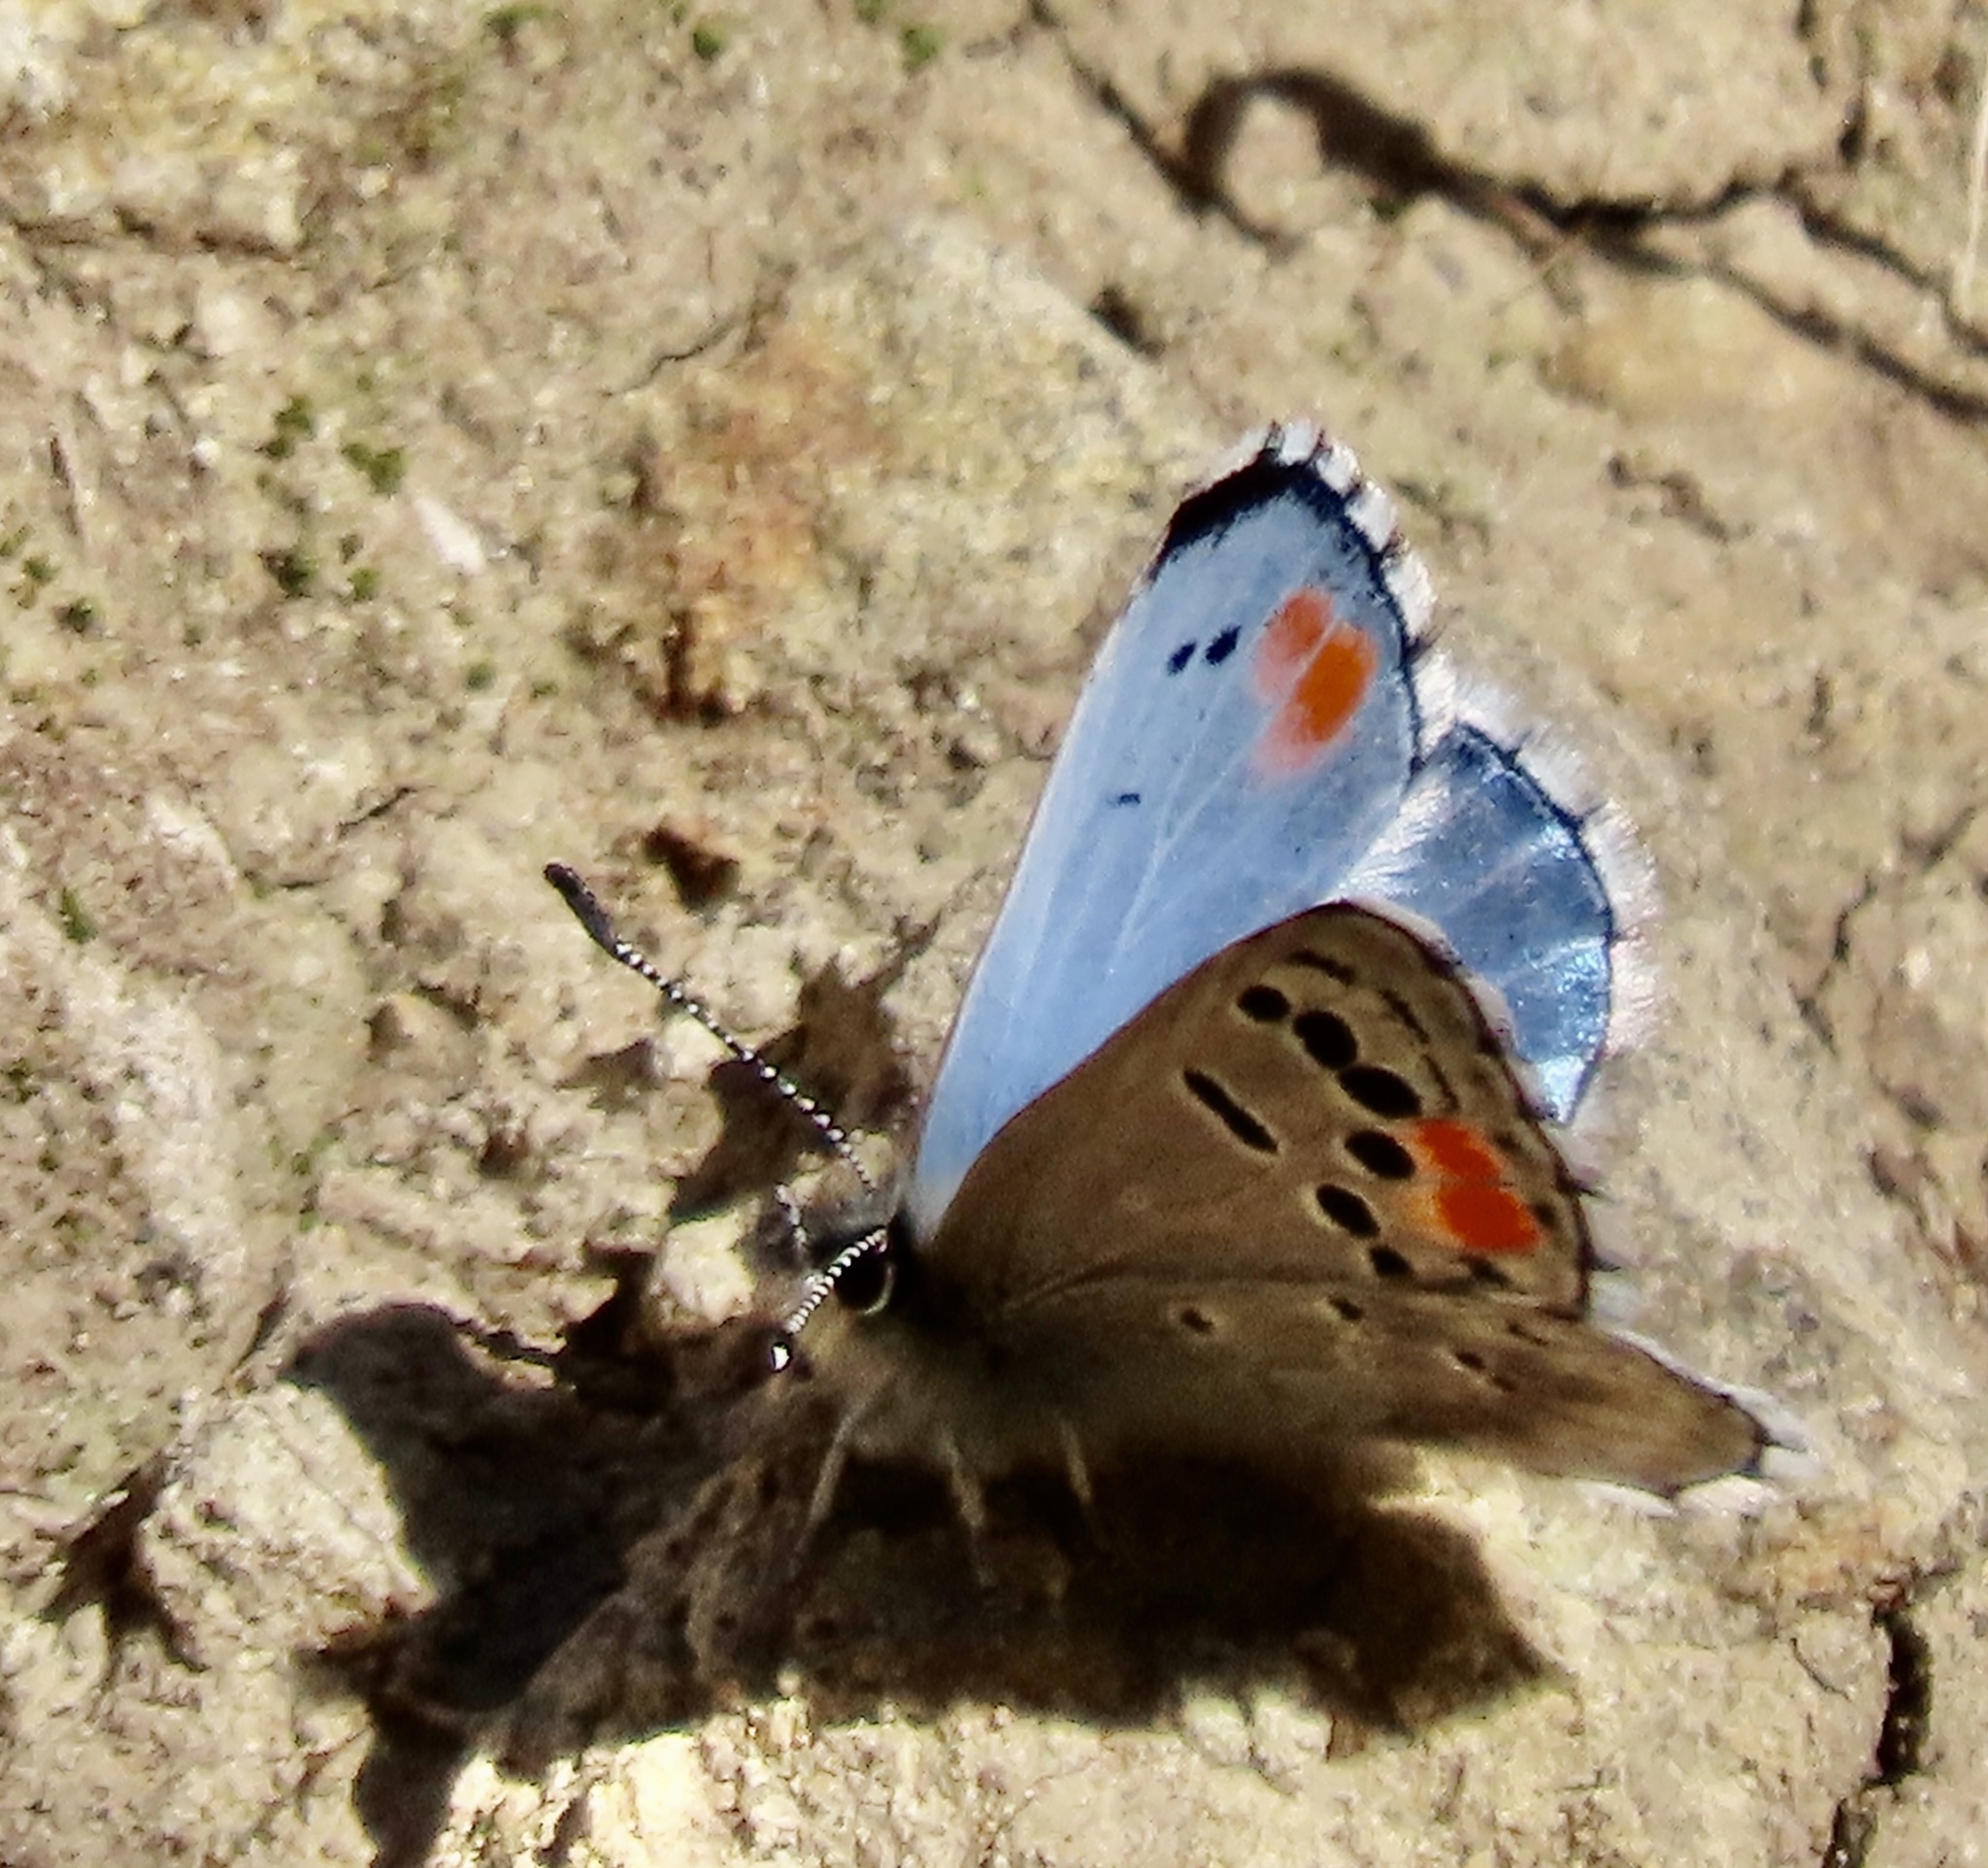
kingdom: Animalia
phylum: Arthropoda
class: Insecta
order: Lepidoptera
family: Lycaenidae
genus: Philotes
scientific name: Philotes sonorensis
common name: Sonoran blue
